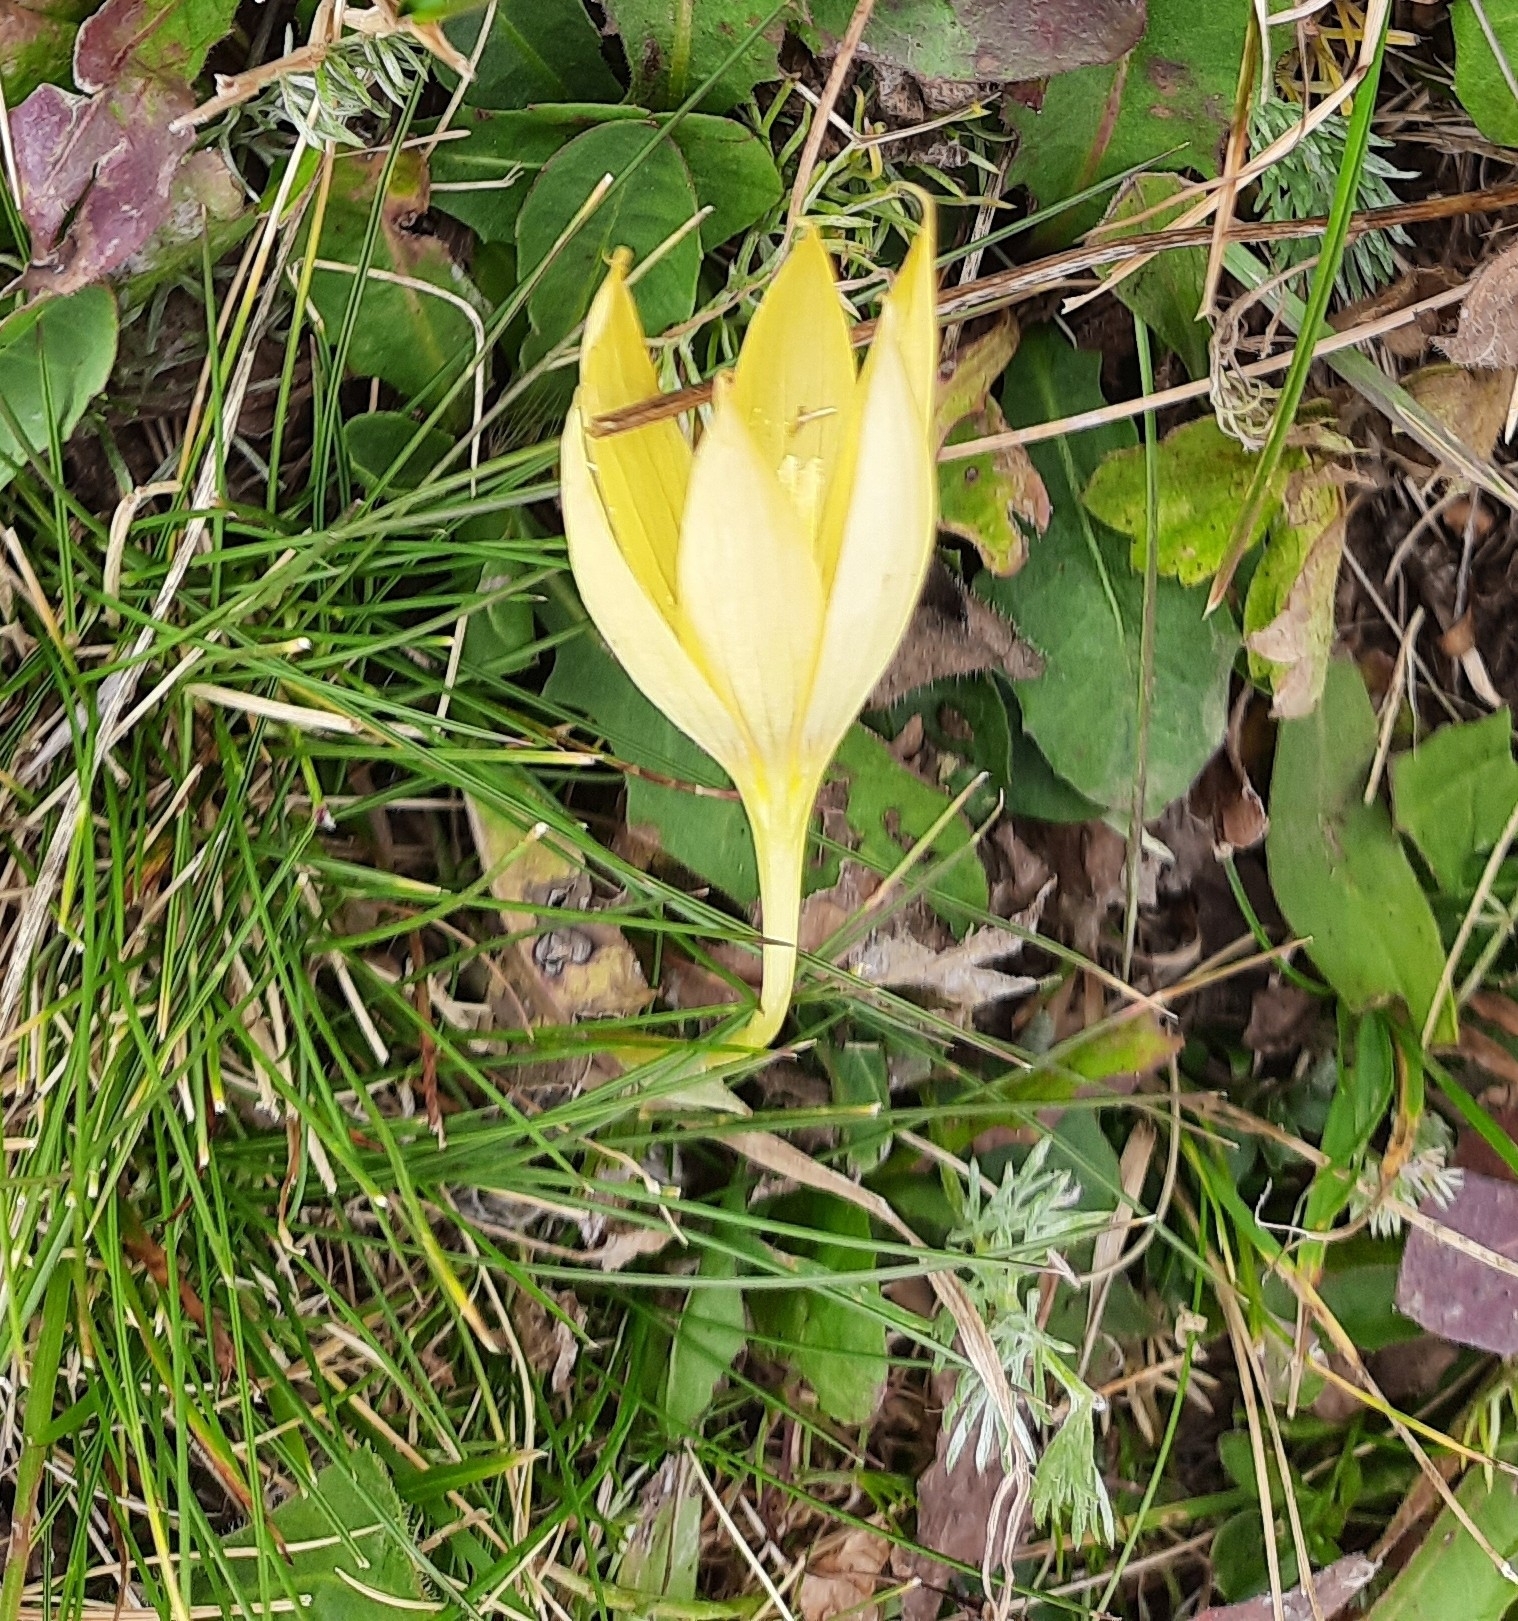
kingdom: Plantae
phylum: Tracheophyta
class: Liliopsida
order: Asparagales
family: Iridaceae
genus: Crocus
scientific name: Crocus scharojanii
